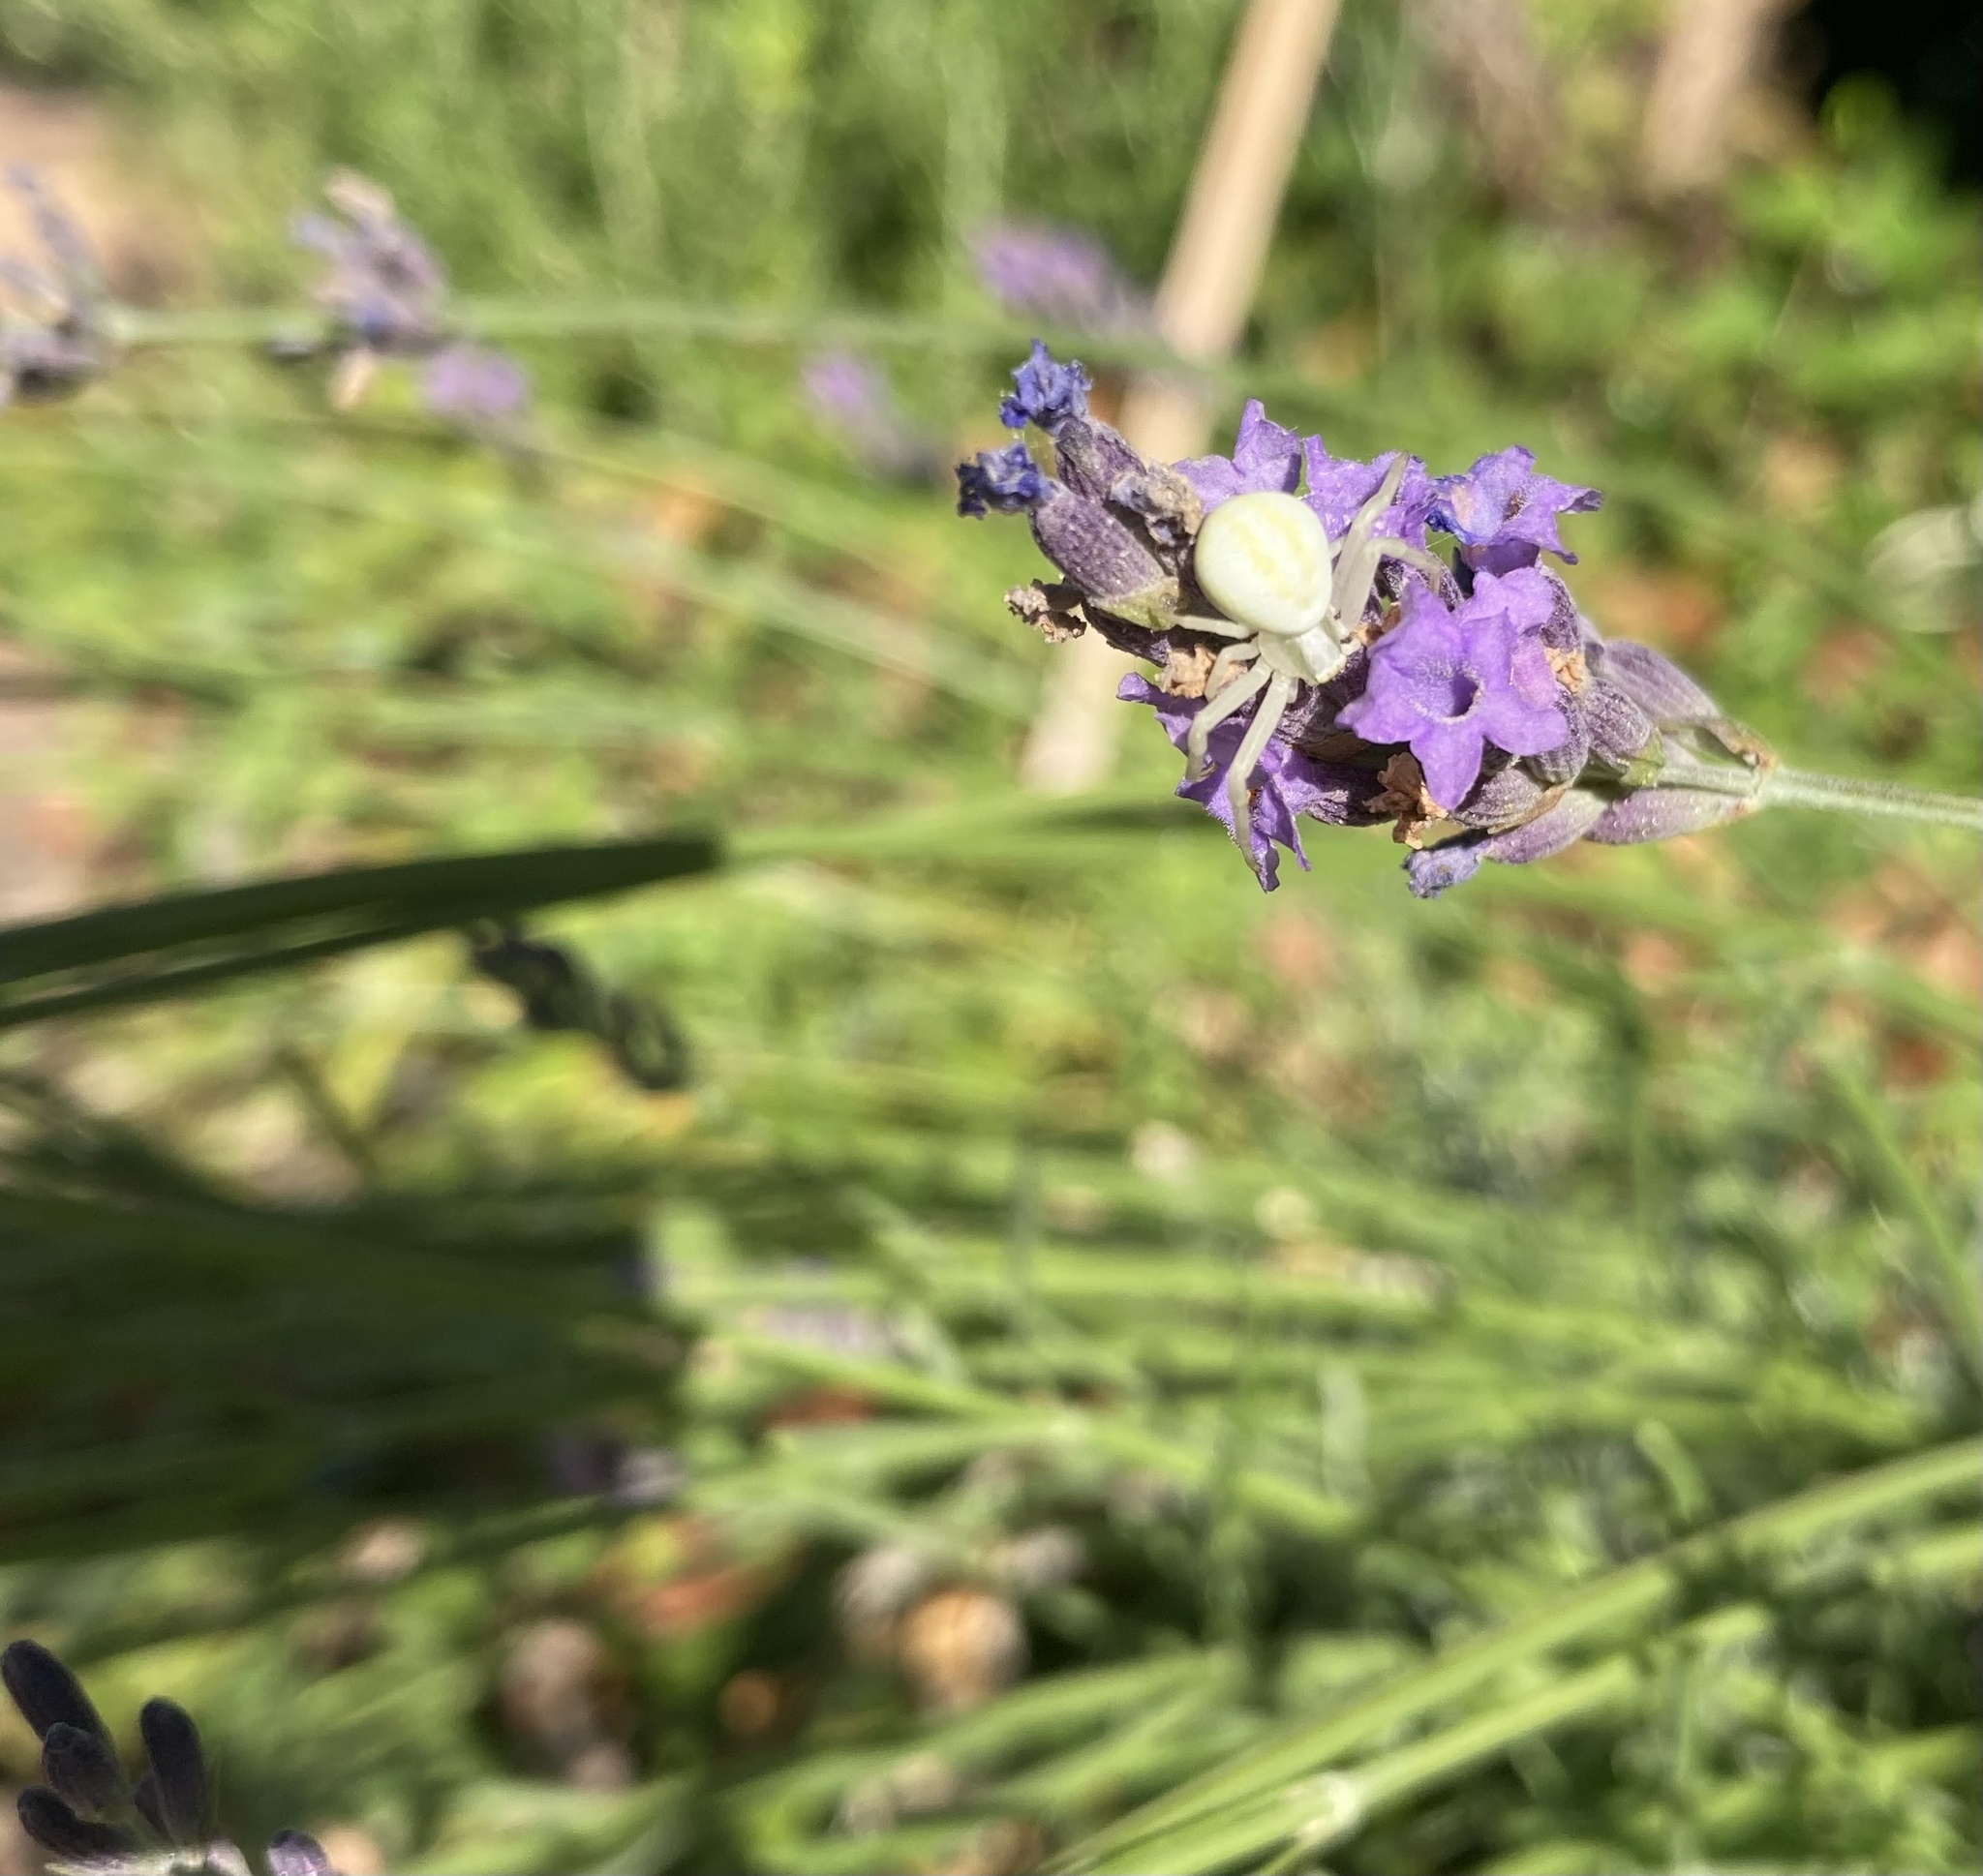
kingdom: Animalia
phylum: Arthropoda
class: Arachnida
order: Araneae
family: Thomisidae
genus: Misumena
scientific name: Misumena vatia
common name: Goldenrod crab spider
